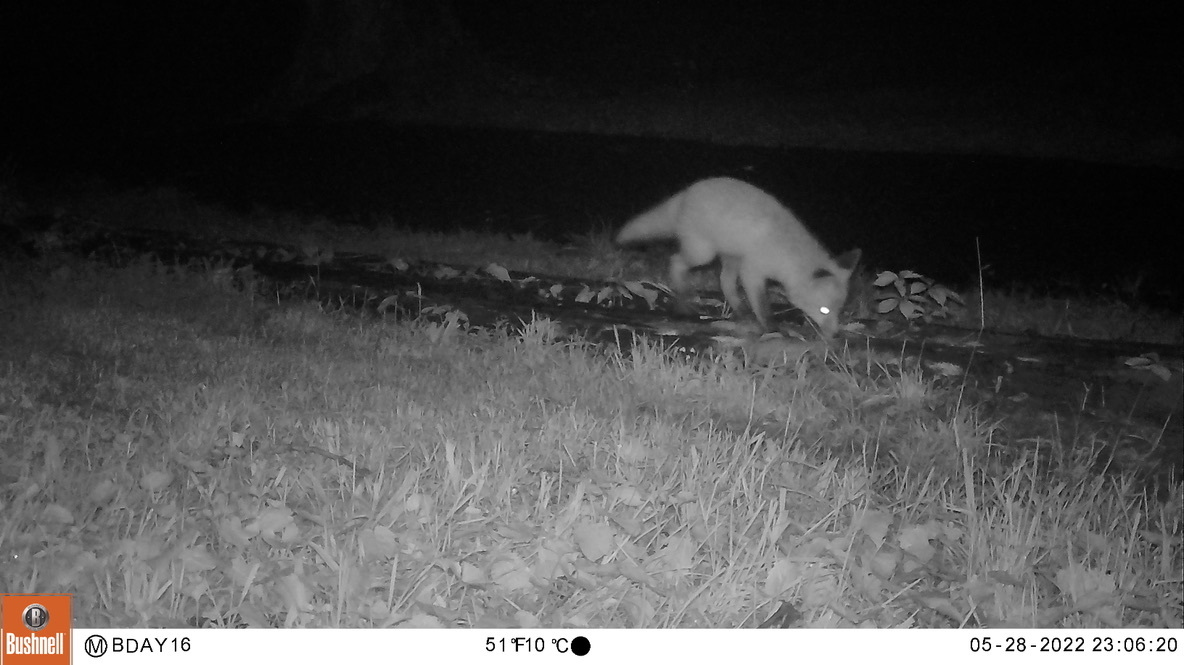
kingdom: Animalia
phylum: Chordata
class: Mammalia
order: Carnivora
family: Canidae
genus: Vulpes
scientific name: Vulpes vulpes
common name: Red fox
